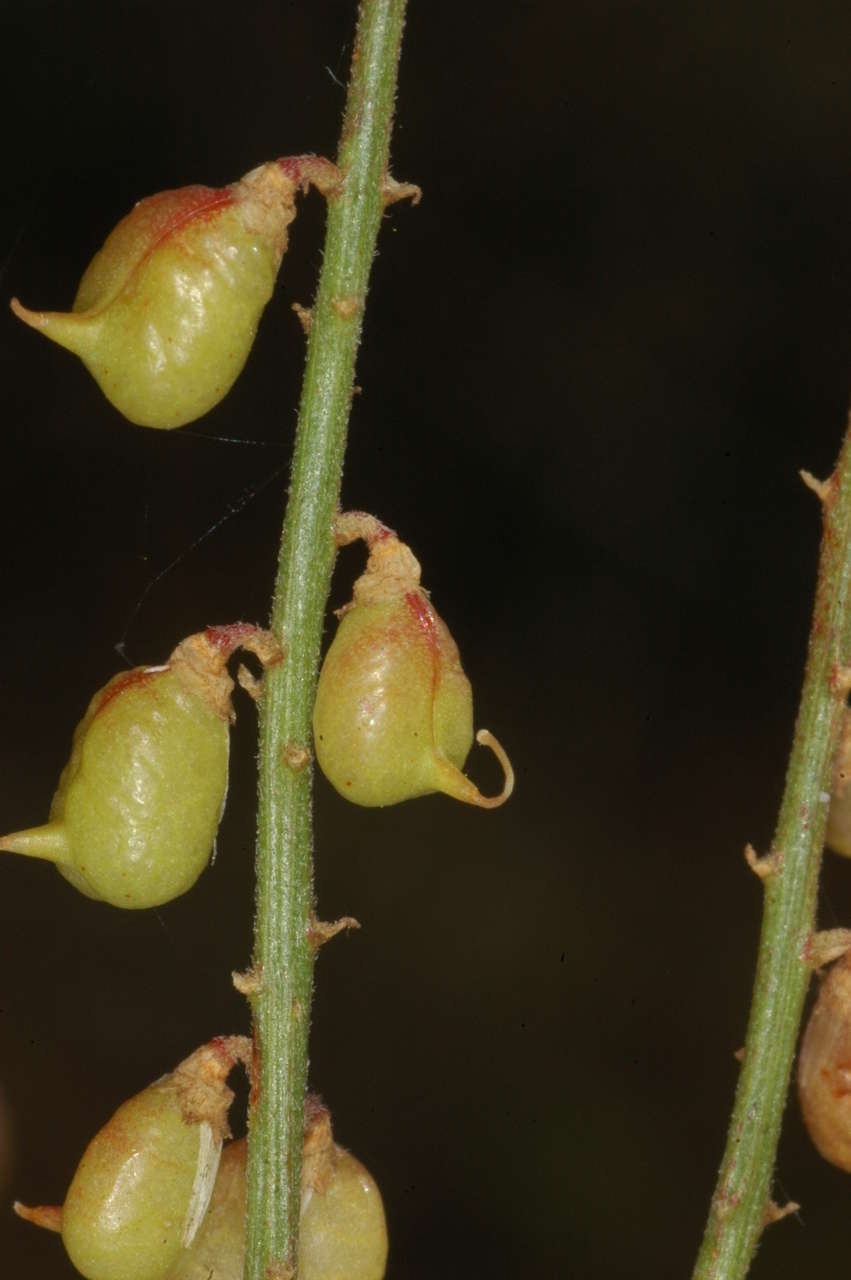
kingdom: Plantae
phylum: Tracheophyta
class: Magnoliopsida
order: Fabales
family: Fabaceae
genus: Swainsona
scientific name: Swainsona microphylla
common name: Small-leaf swainsona-pea
